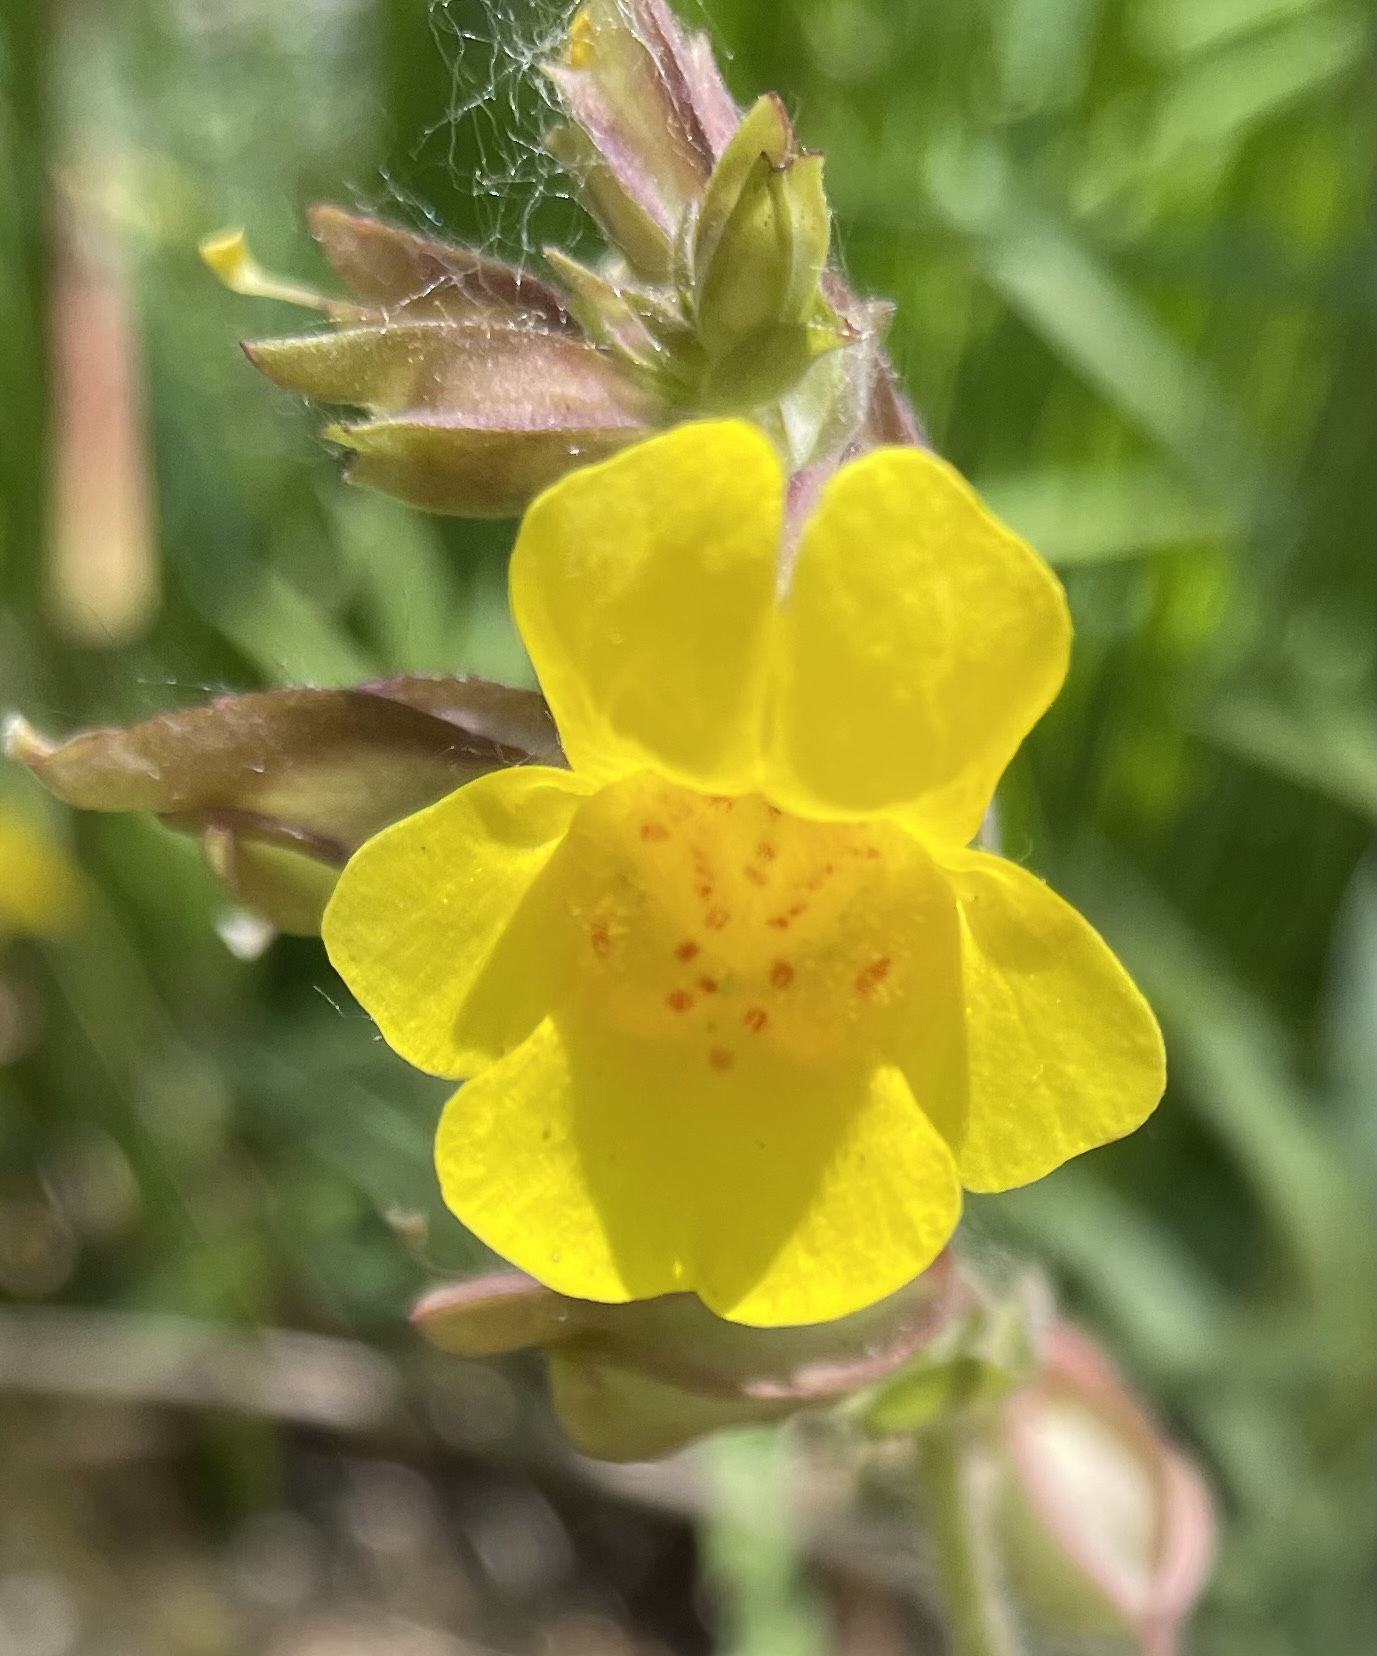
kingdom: Plantae
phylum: Tracheophyta
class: Magnoliopsida
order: Lamiales
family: Phrymaceae
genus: Erythranthe
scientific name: Erythranthe guttata
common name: Monkeyflower
